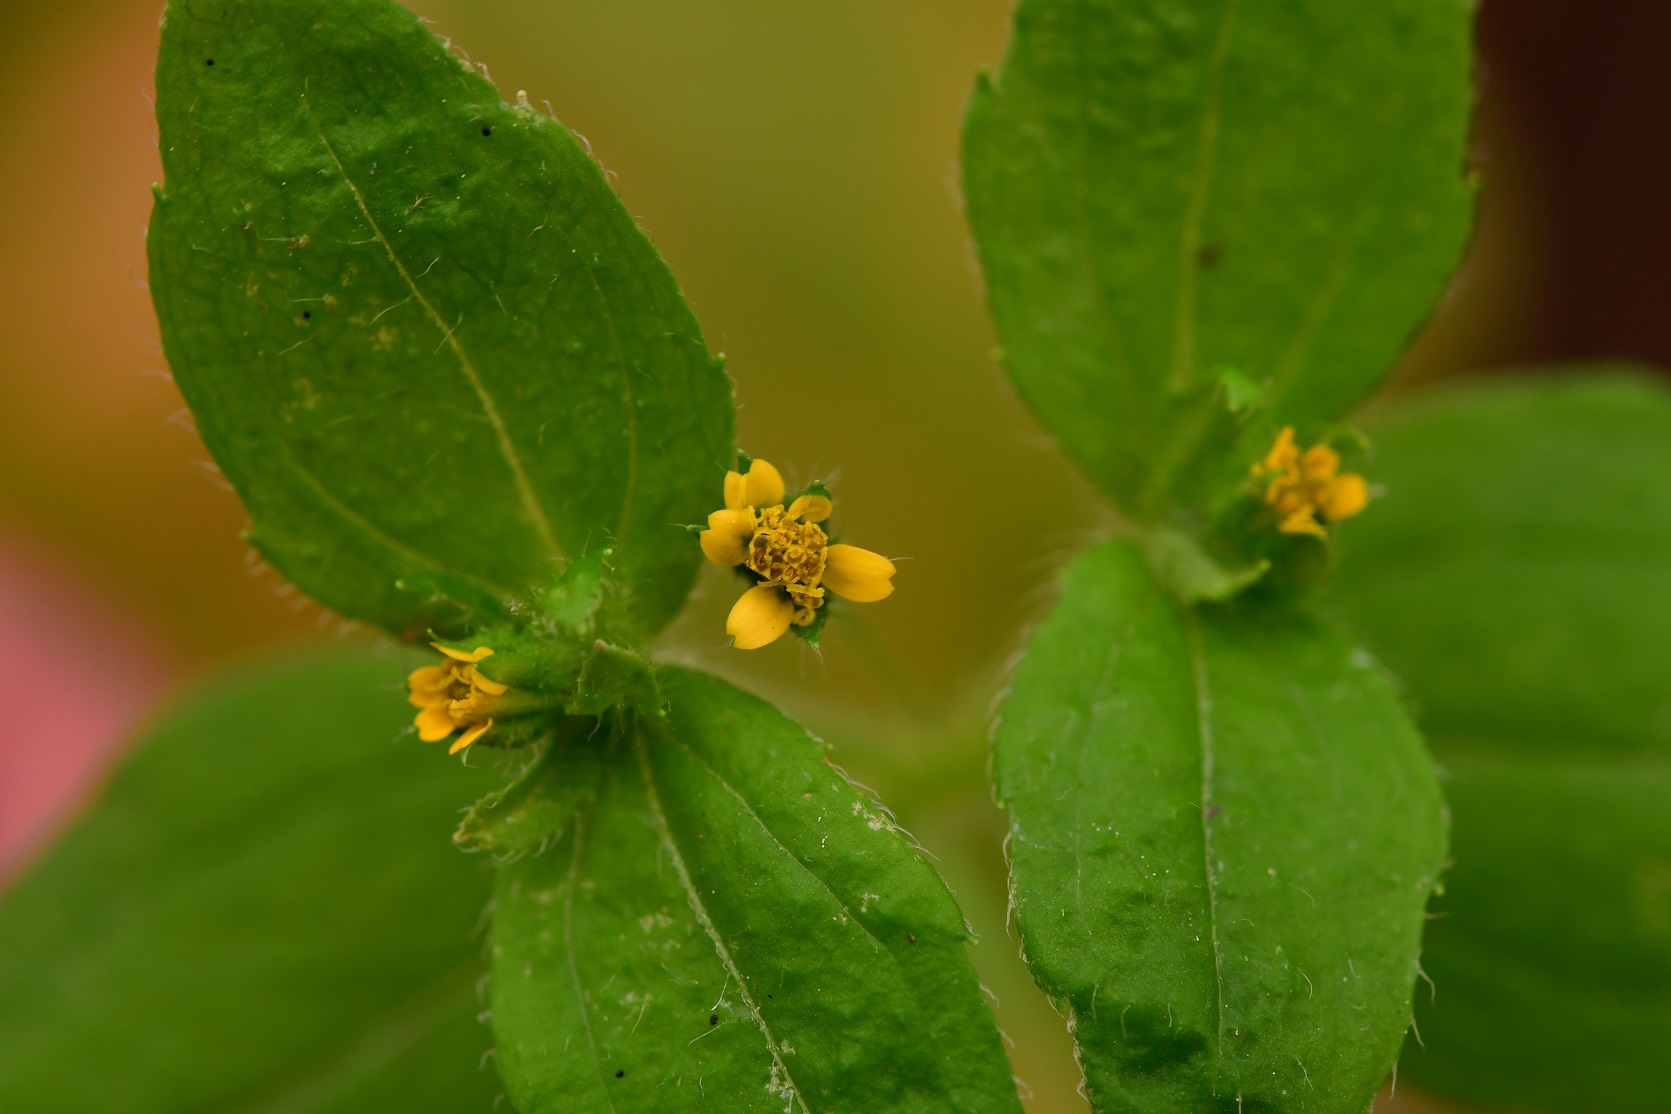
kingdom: Plantae
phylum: Tracheophyta
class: Magnoliopsida
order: Asterales
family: Asteraceae
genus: Jaegeria
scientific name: Jaegeria hirta
